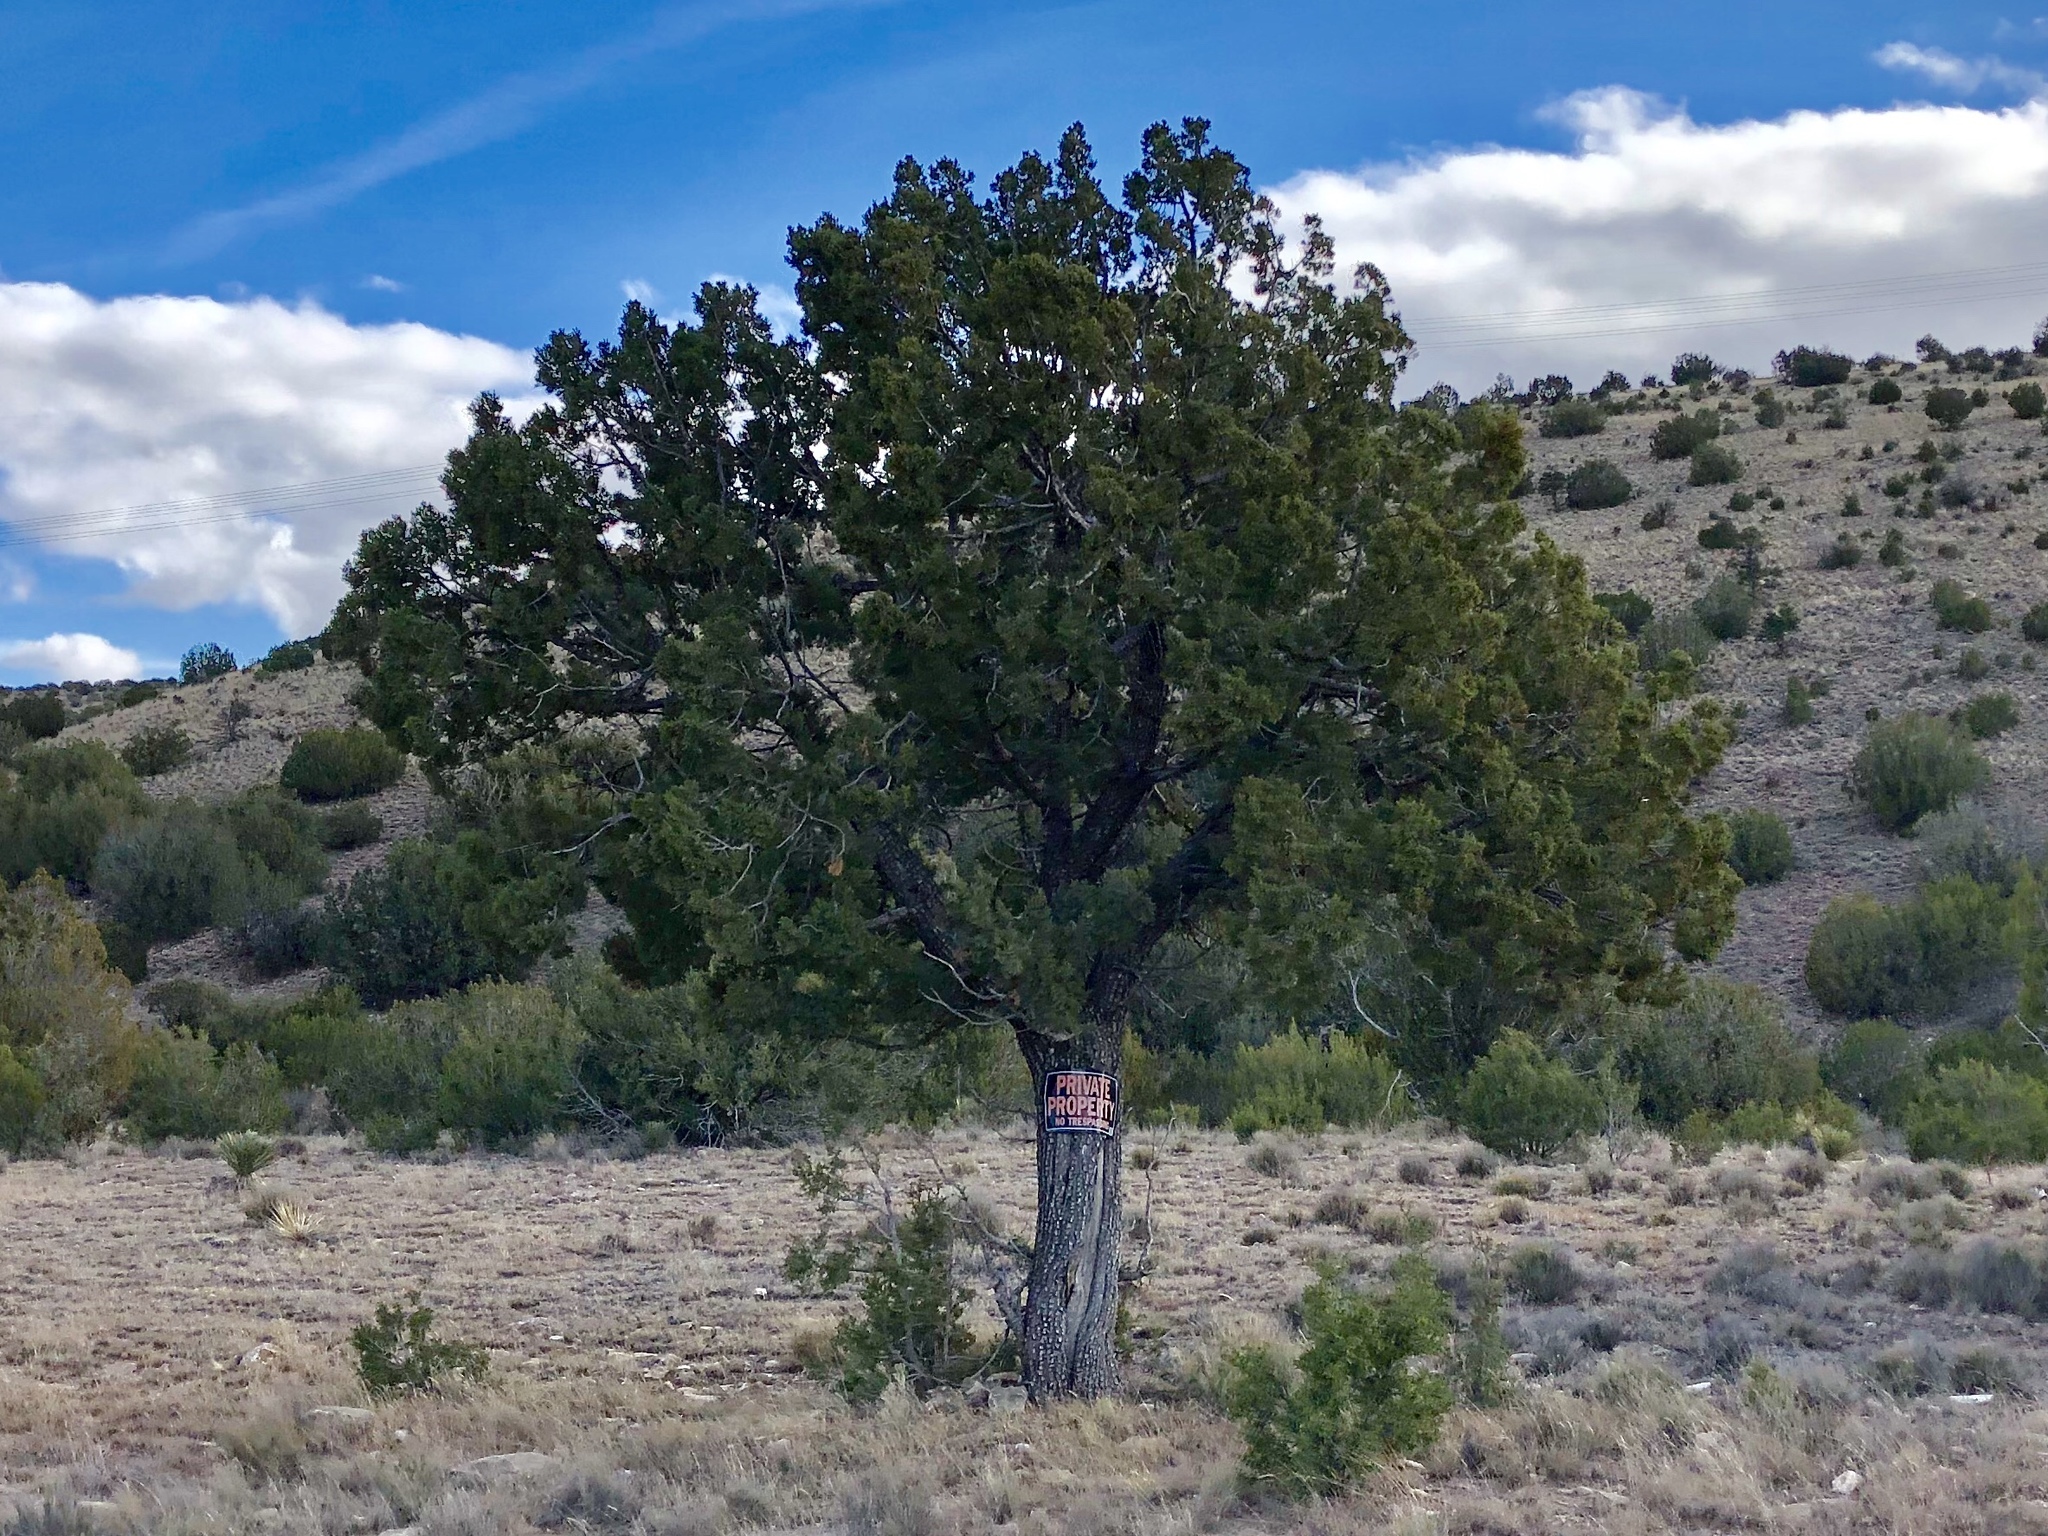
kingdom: Plantae
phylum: Tracheophyta
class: Pinopsida
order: Pinales
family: Cupressaceae
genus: Juniperus
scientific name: Juniperus deppeana
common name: Alligator juniper
